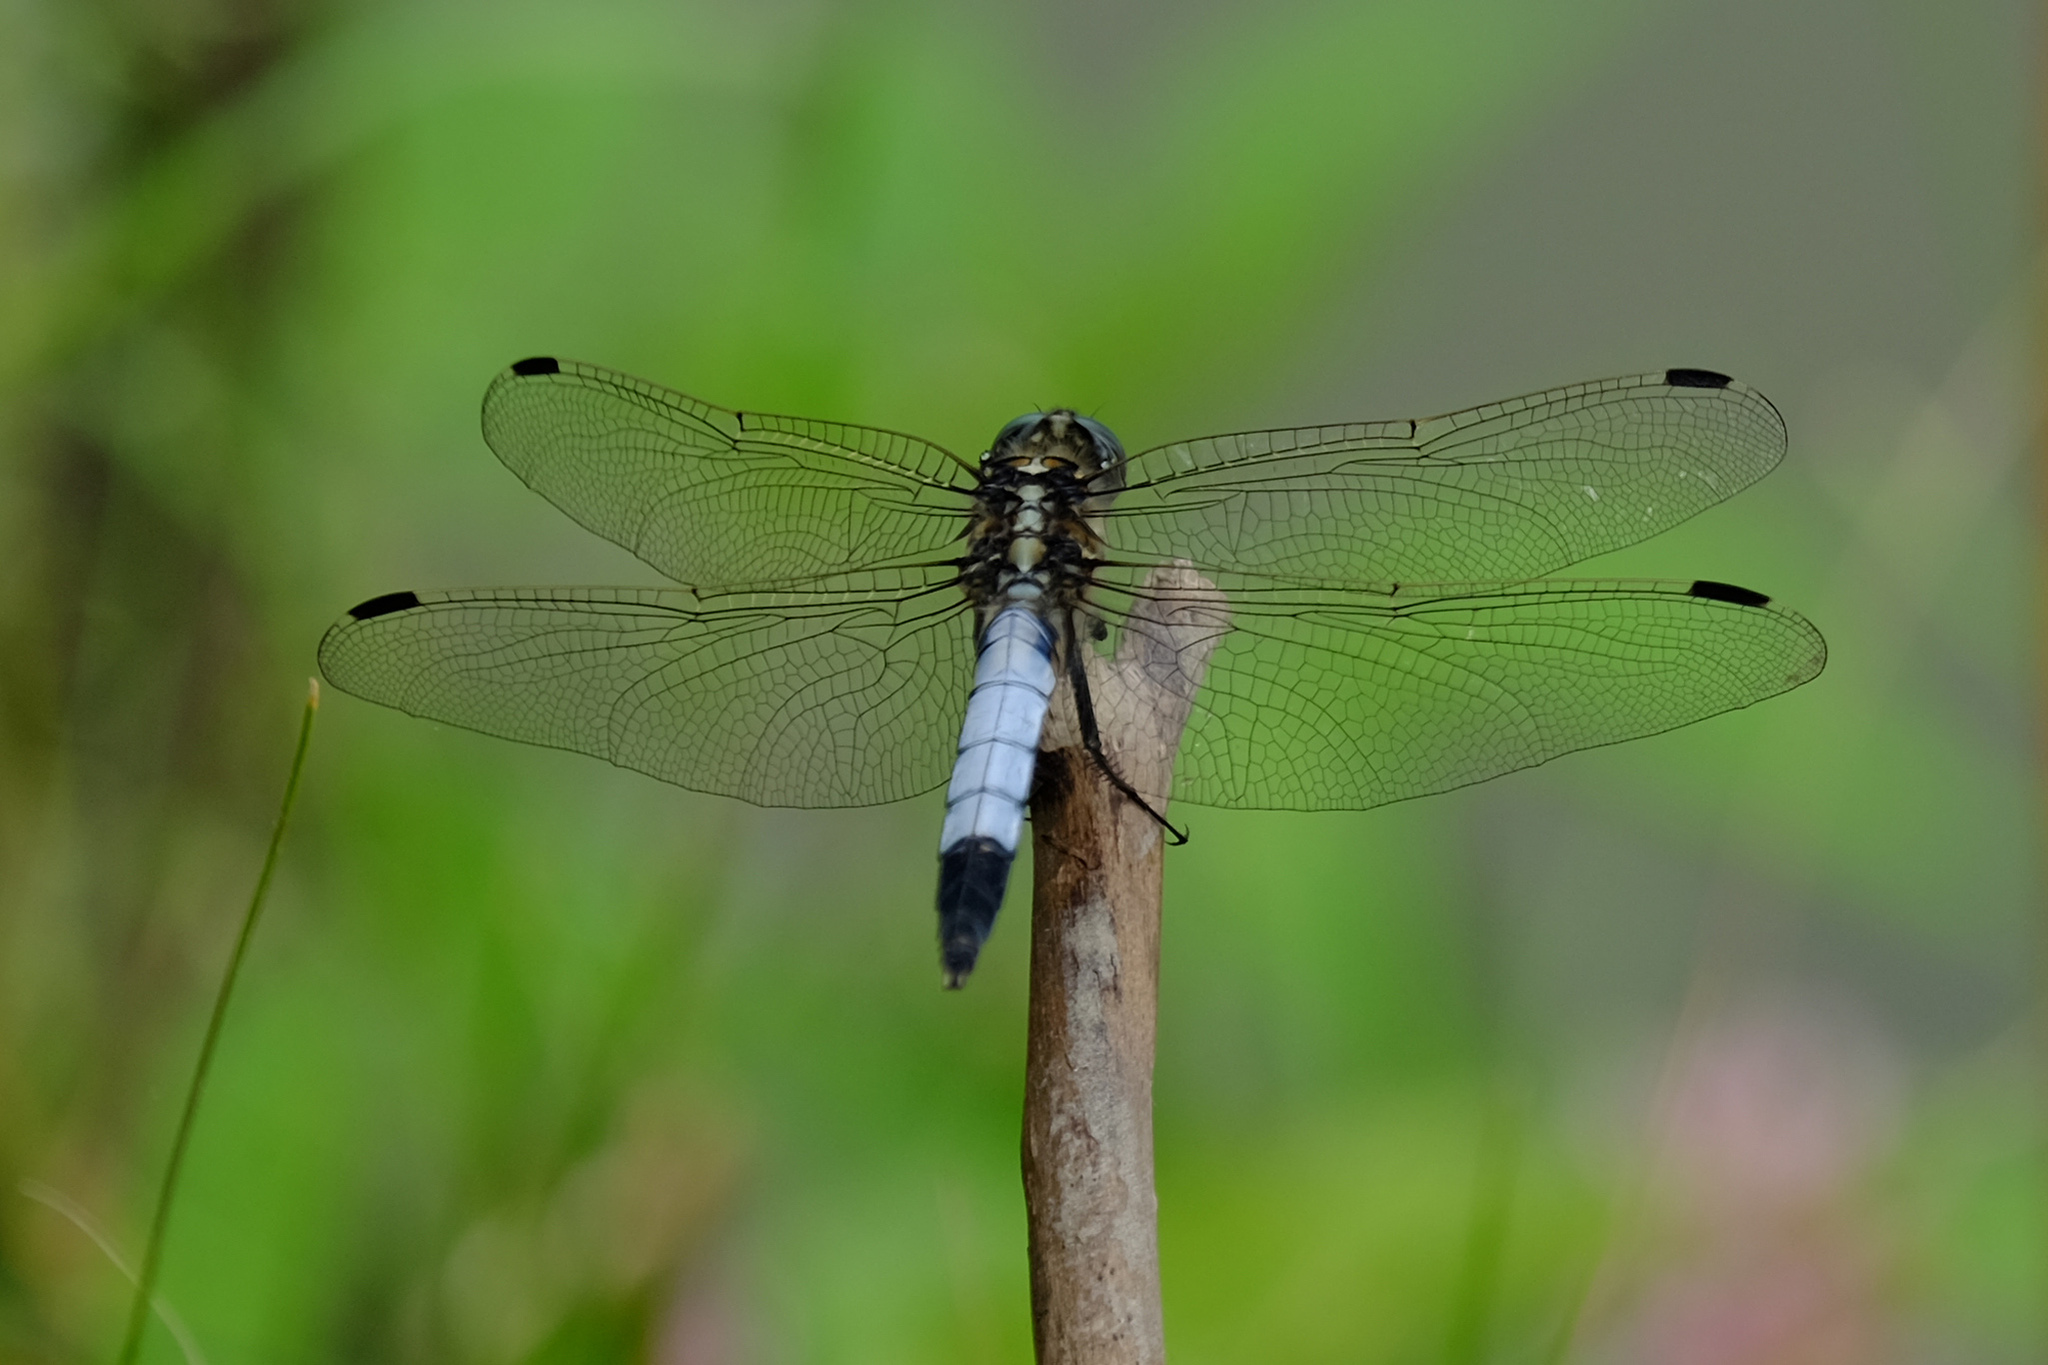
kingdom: Animalia
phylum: Arthropoda
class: Insecta
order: Odonata
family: Libellulidae
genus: Orthetrum
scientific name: Orthetrum albistylum
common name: White-tailed skimmer
